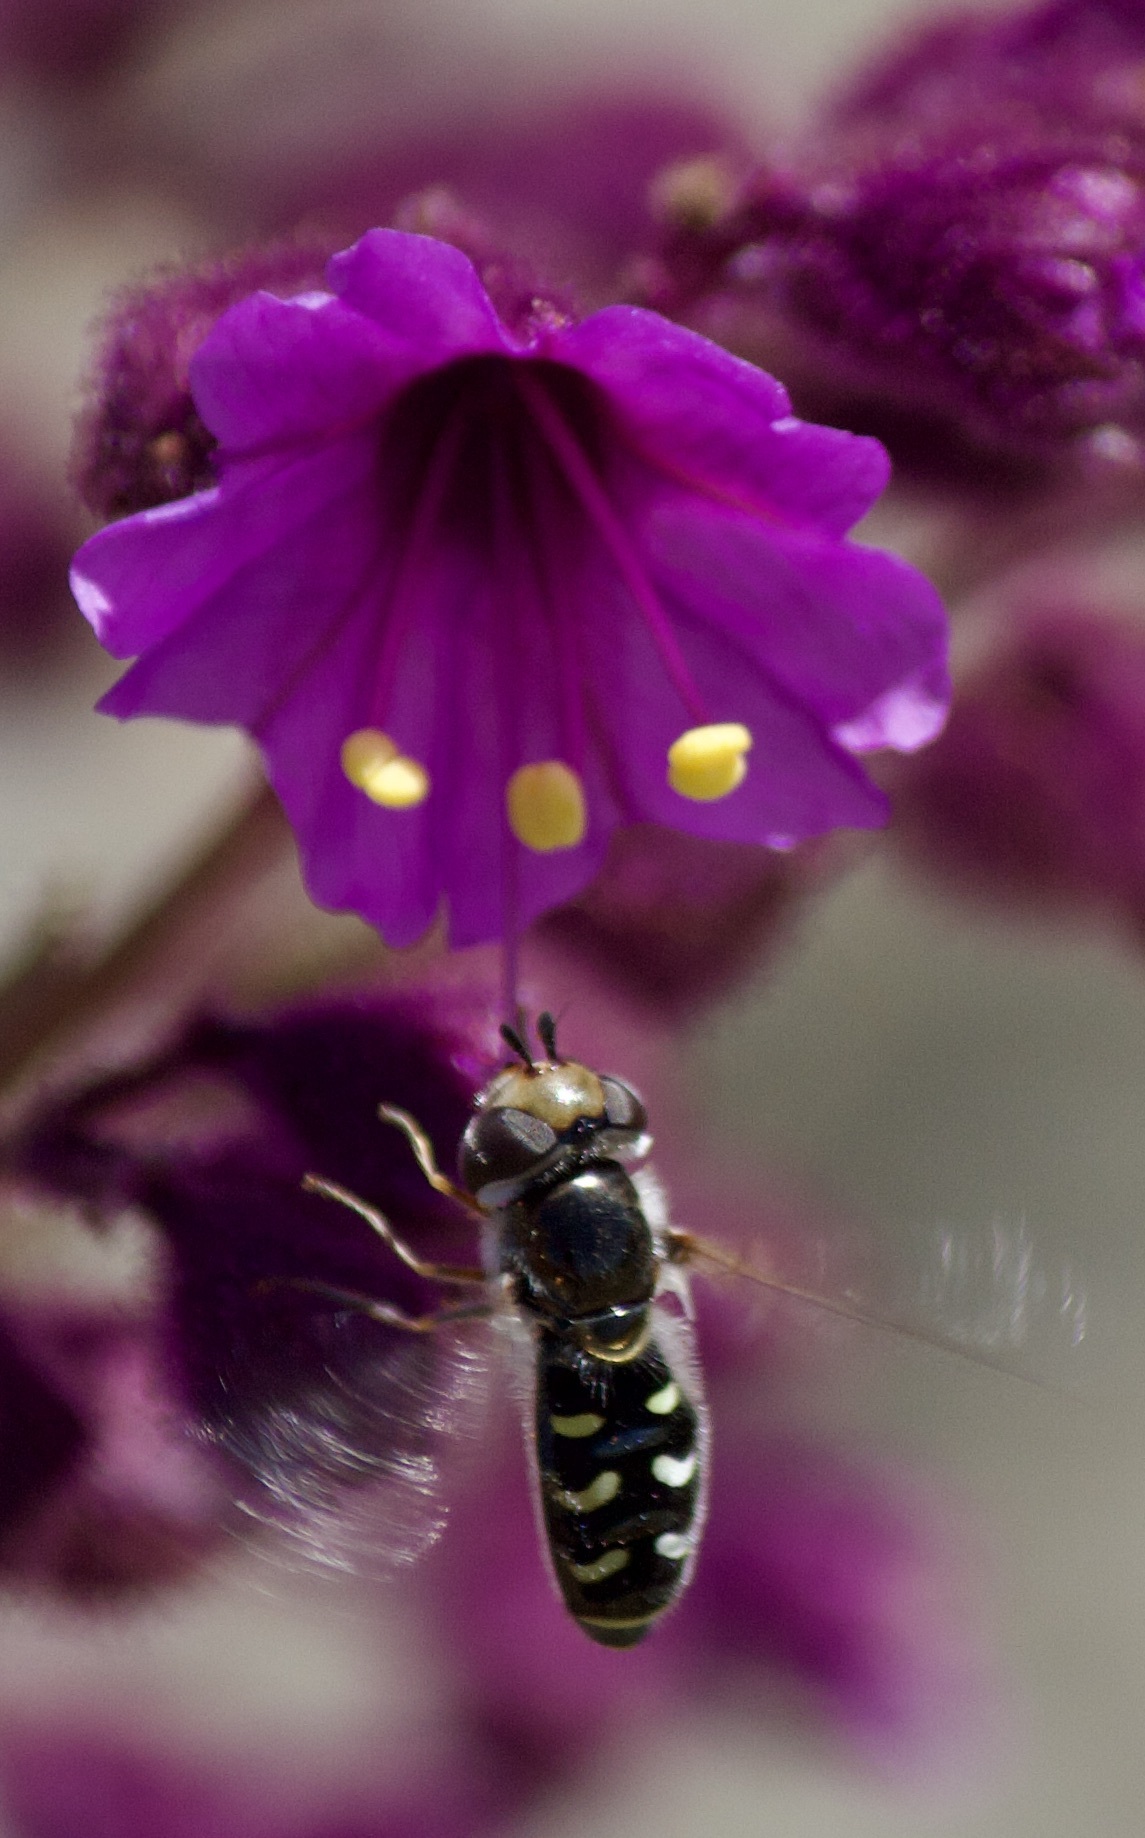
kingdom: Animalia
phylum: Arthropoda
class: Insecta
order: Diptera
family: Syrphidae
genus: Austroscaeva
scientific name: Austroscaeva melanostoma
